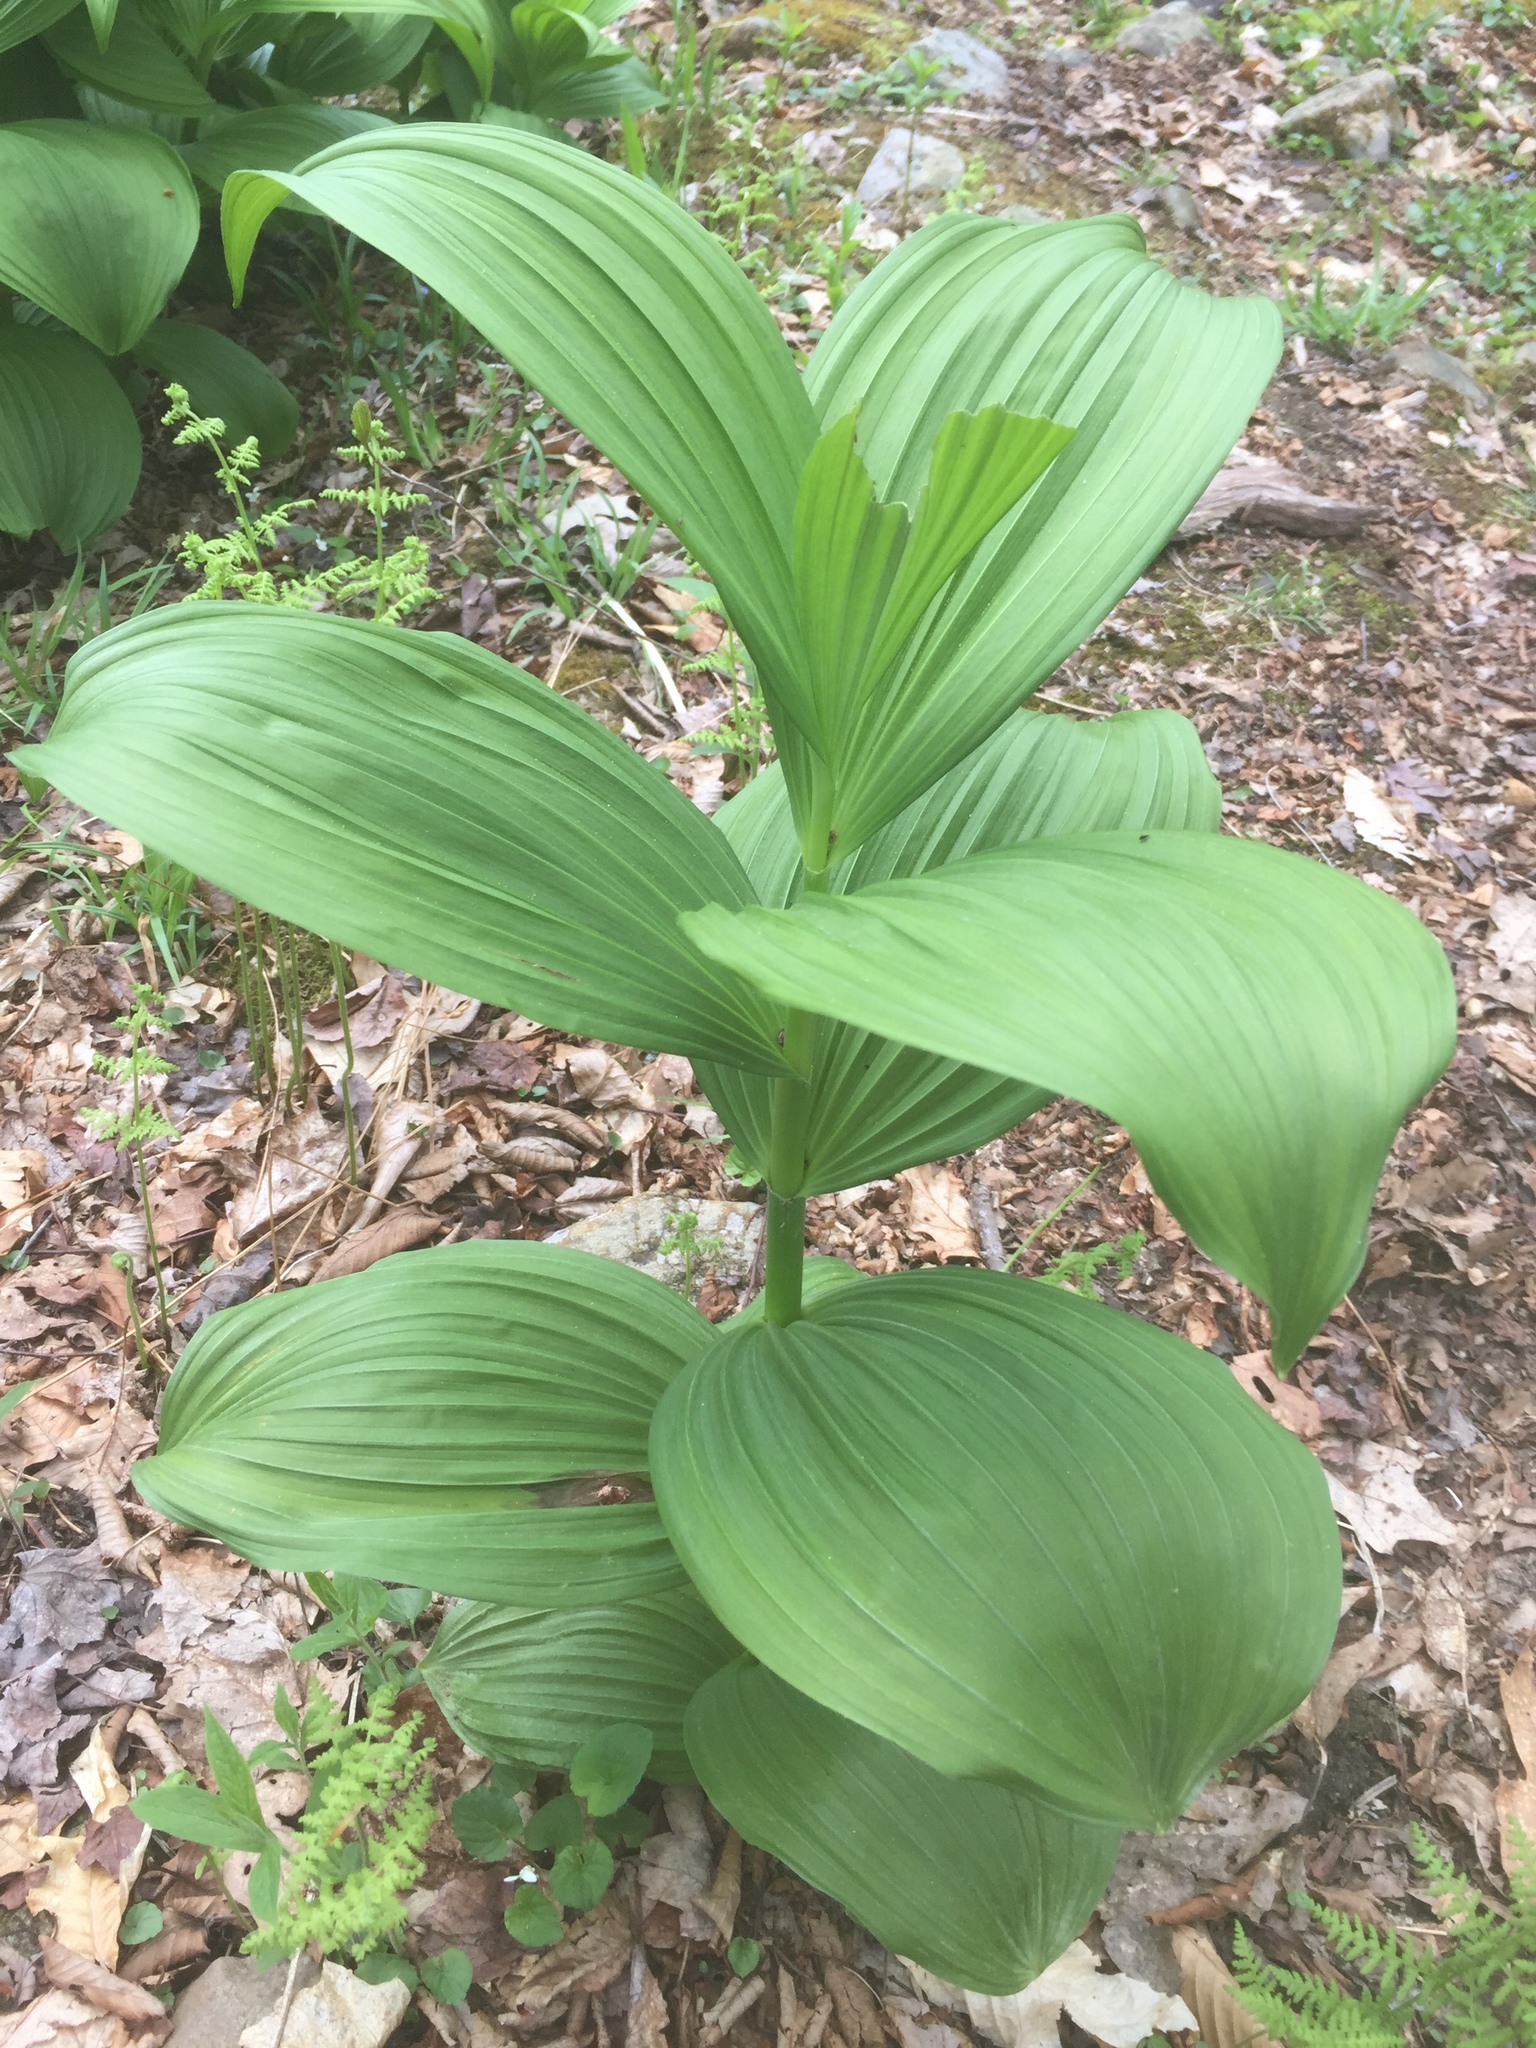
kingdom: Plantae
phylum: Tracheophyta
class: Liliopsida
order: Liliales
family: Melanthiaceae
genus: Veratrum
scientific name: Veratrum viride
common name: American false hellebore
